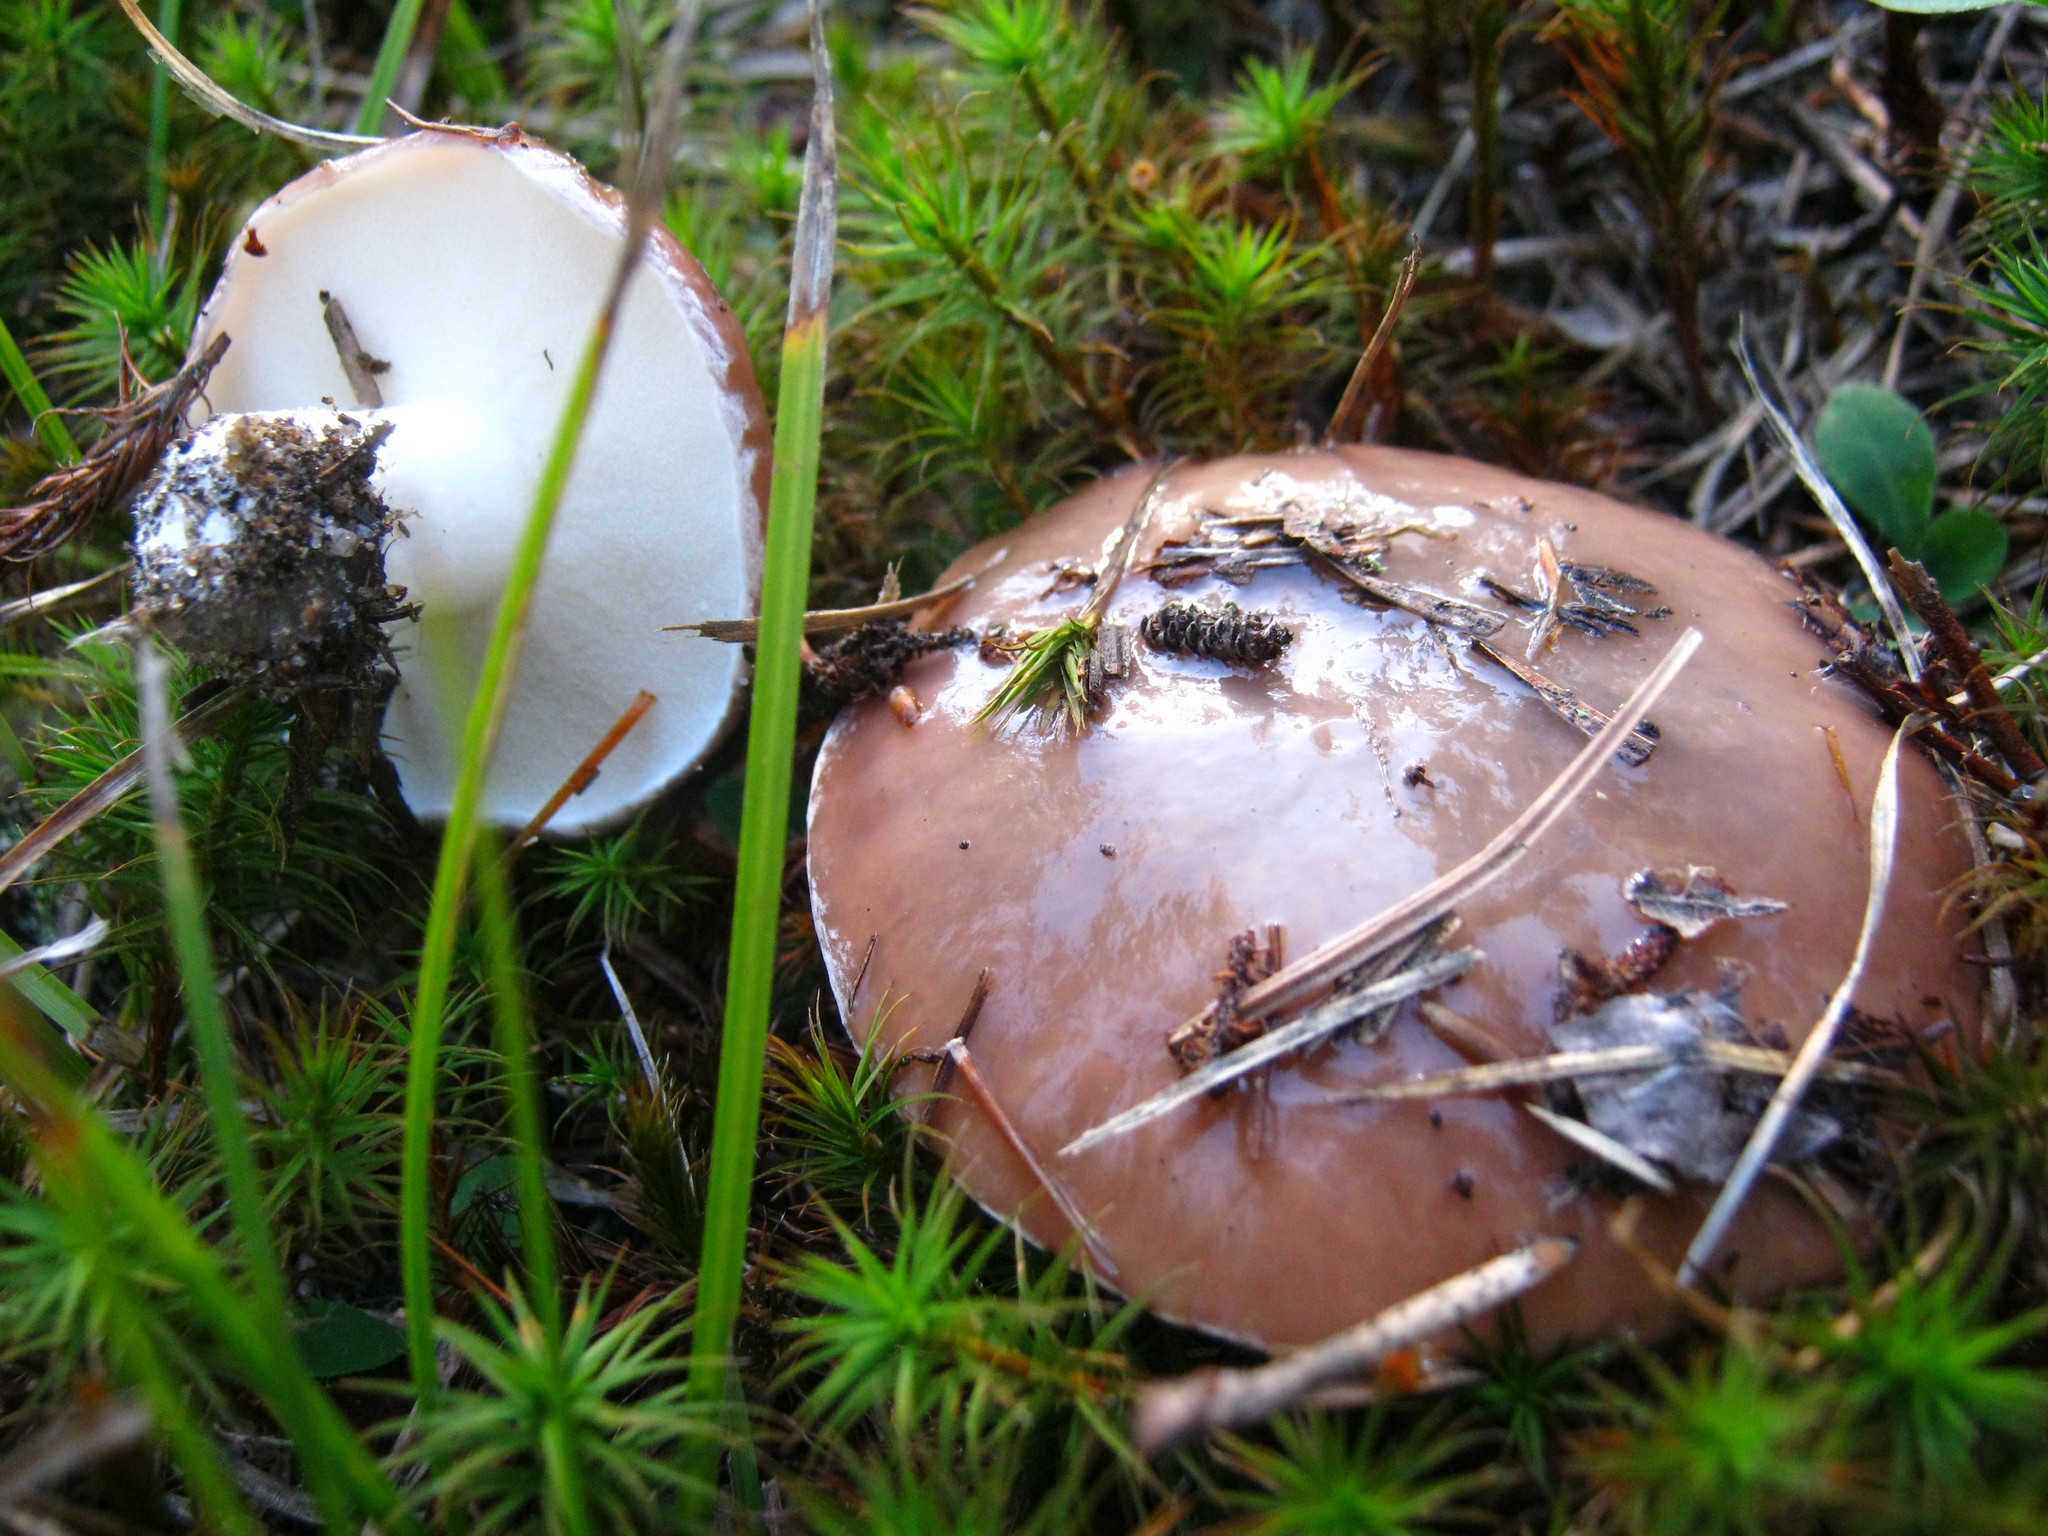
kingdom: Fungi
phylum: Basidiomycota
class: Agaricomycetes
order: Boletales
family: Suillaceae
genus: Suillus
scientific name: Suillus brevipes
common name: Short-stalked suillus
